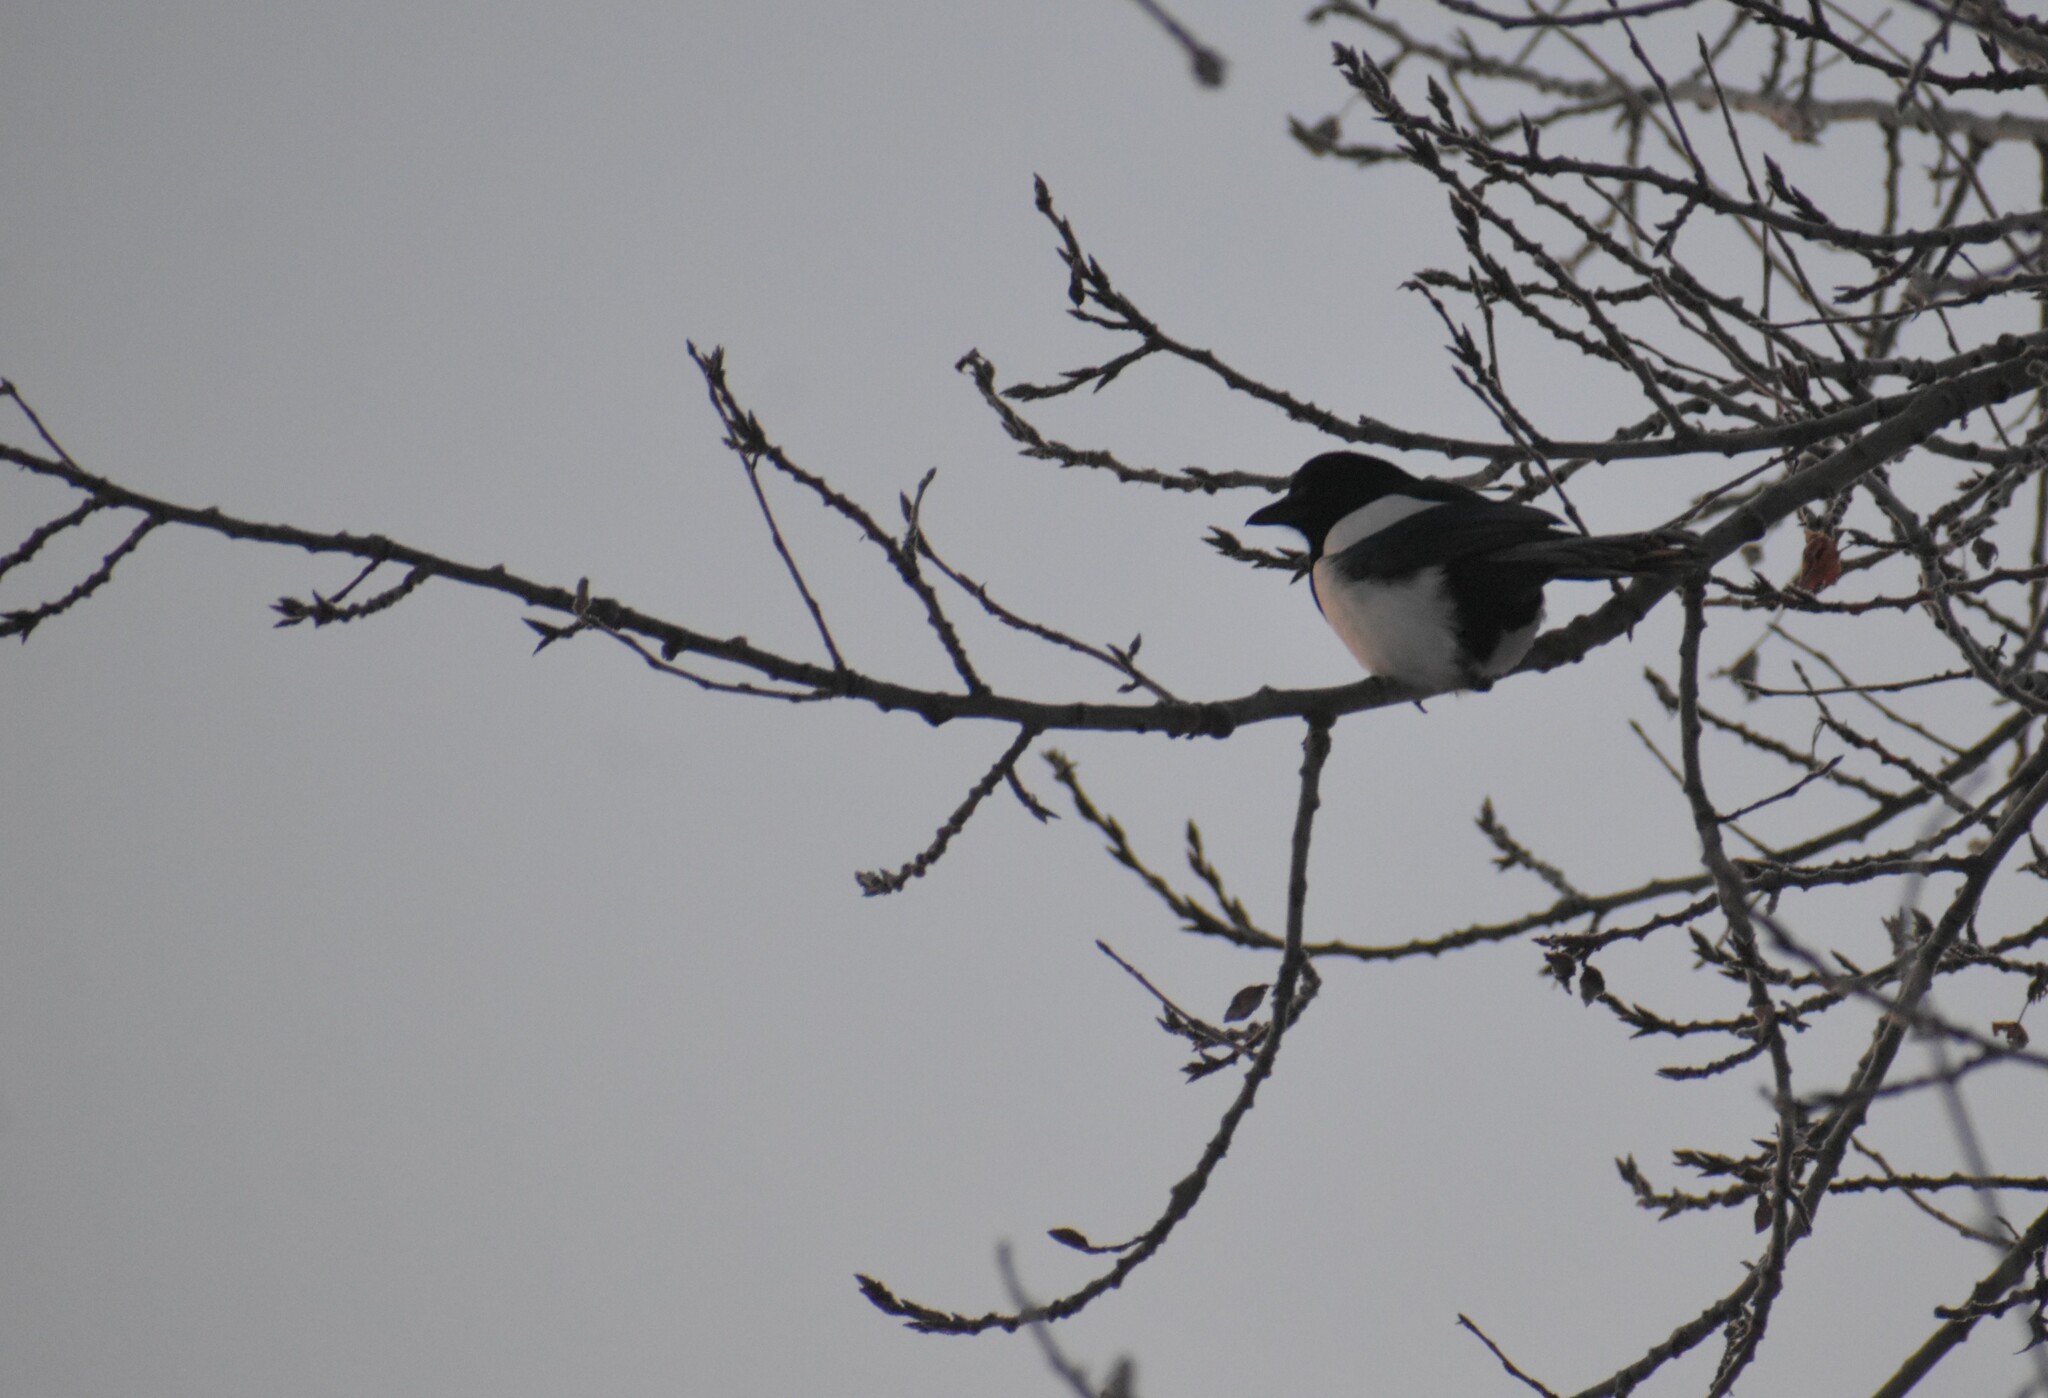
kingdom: Animalia
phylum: Chordata
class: Aves
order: Passeriformes
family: Corvidae
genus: Pica
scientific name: Pica pica
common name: Eurasian magpie
